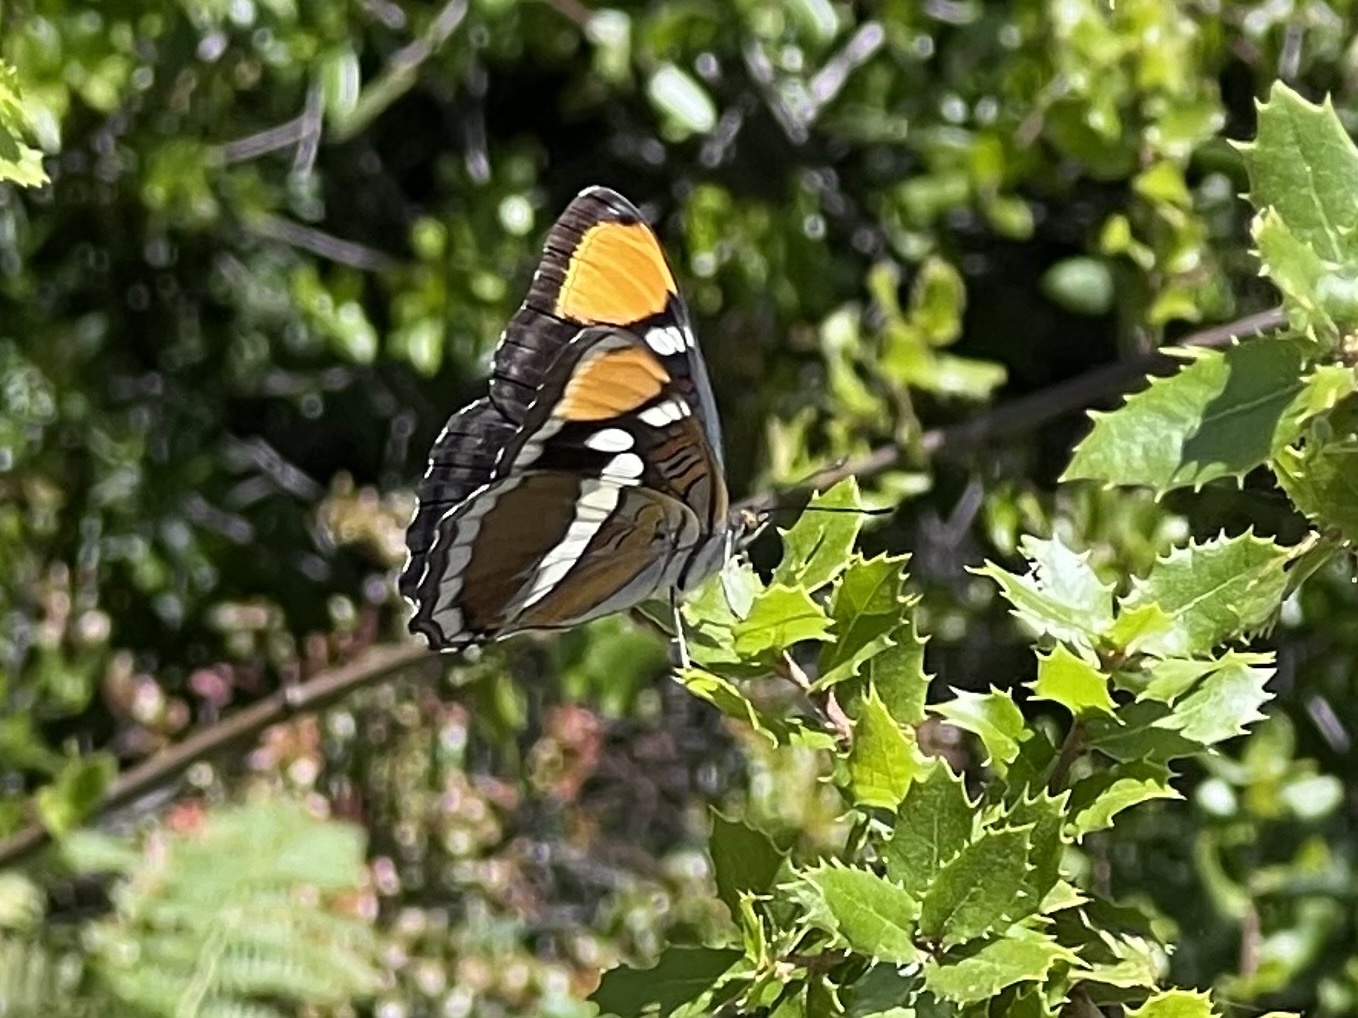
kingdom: Animalia
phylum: Arthropoda
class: Insecta
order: Lepidoptera
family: Nymphalidae
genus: Limenitis
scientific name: Limenitis bredowii
